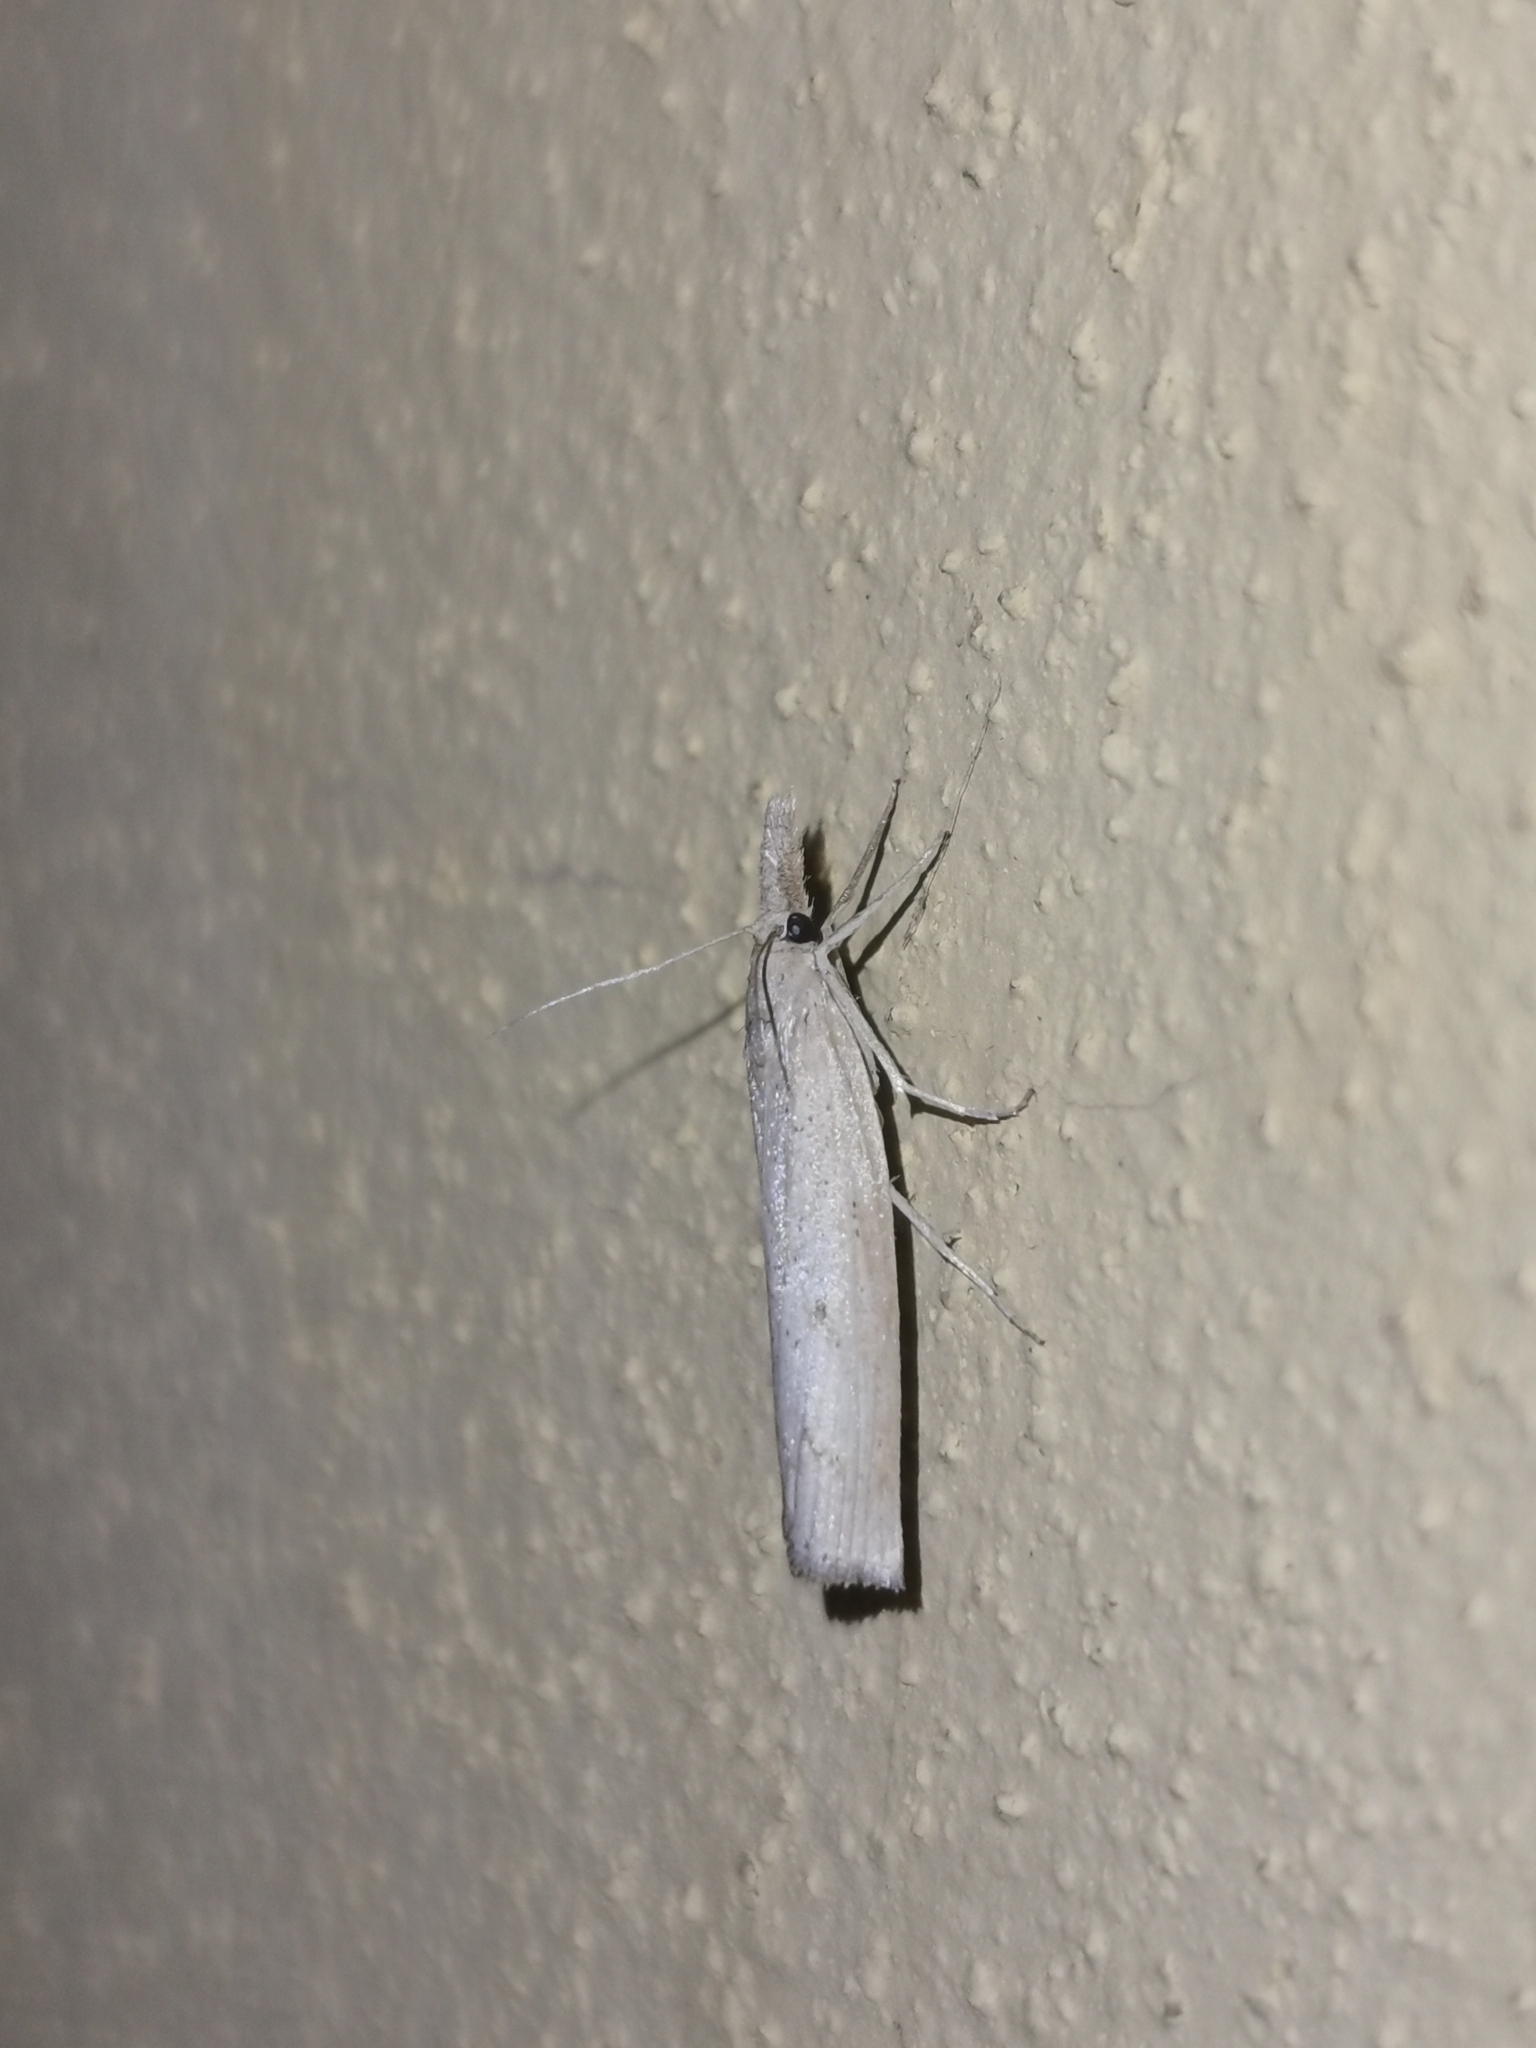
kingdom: Animalia
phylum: Arthropoda
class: Insecta
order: Lepidoptera
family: Crambidae
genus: Pediasia
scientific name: Pediasia contaminella
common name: Waste grass-veneer
